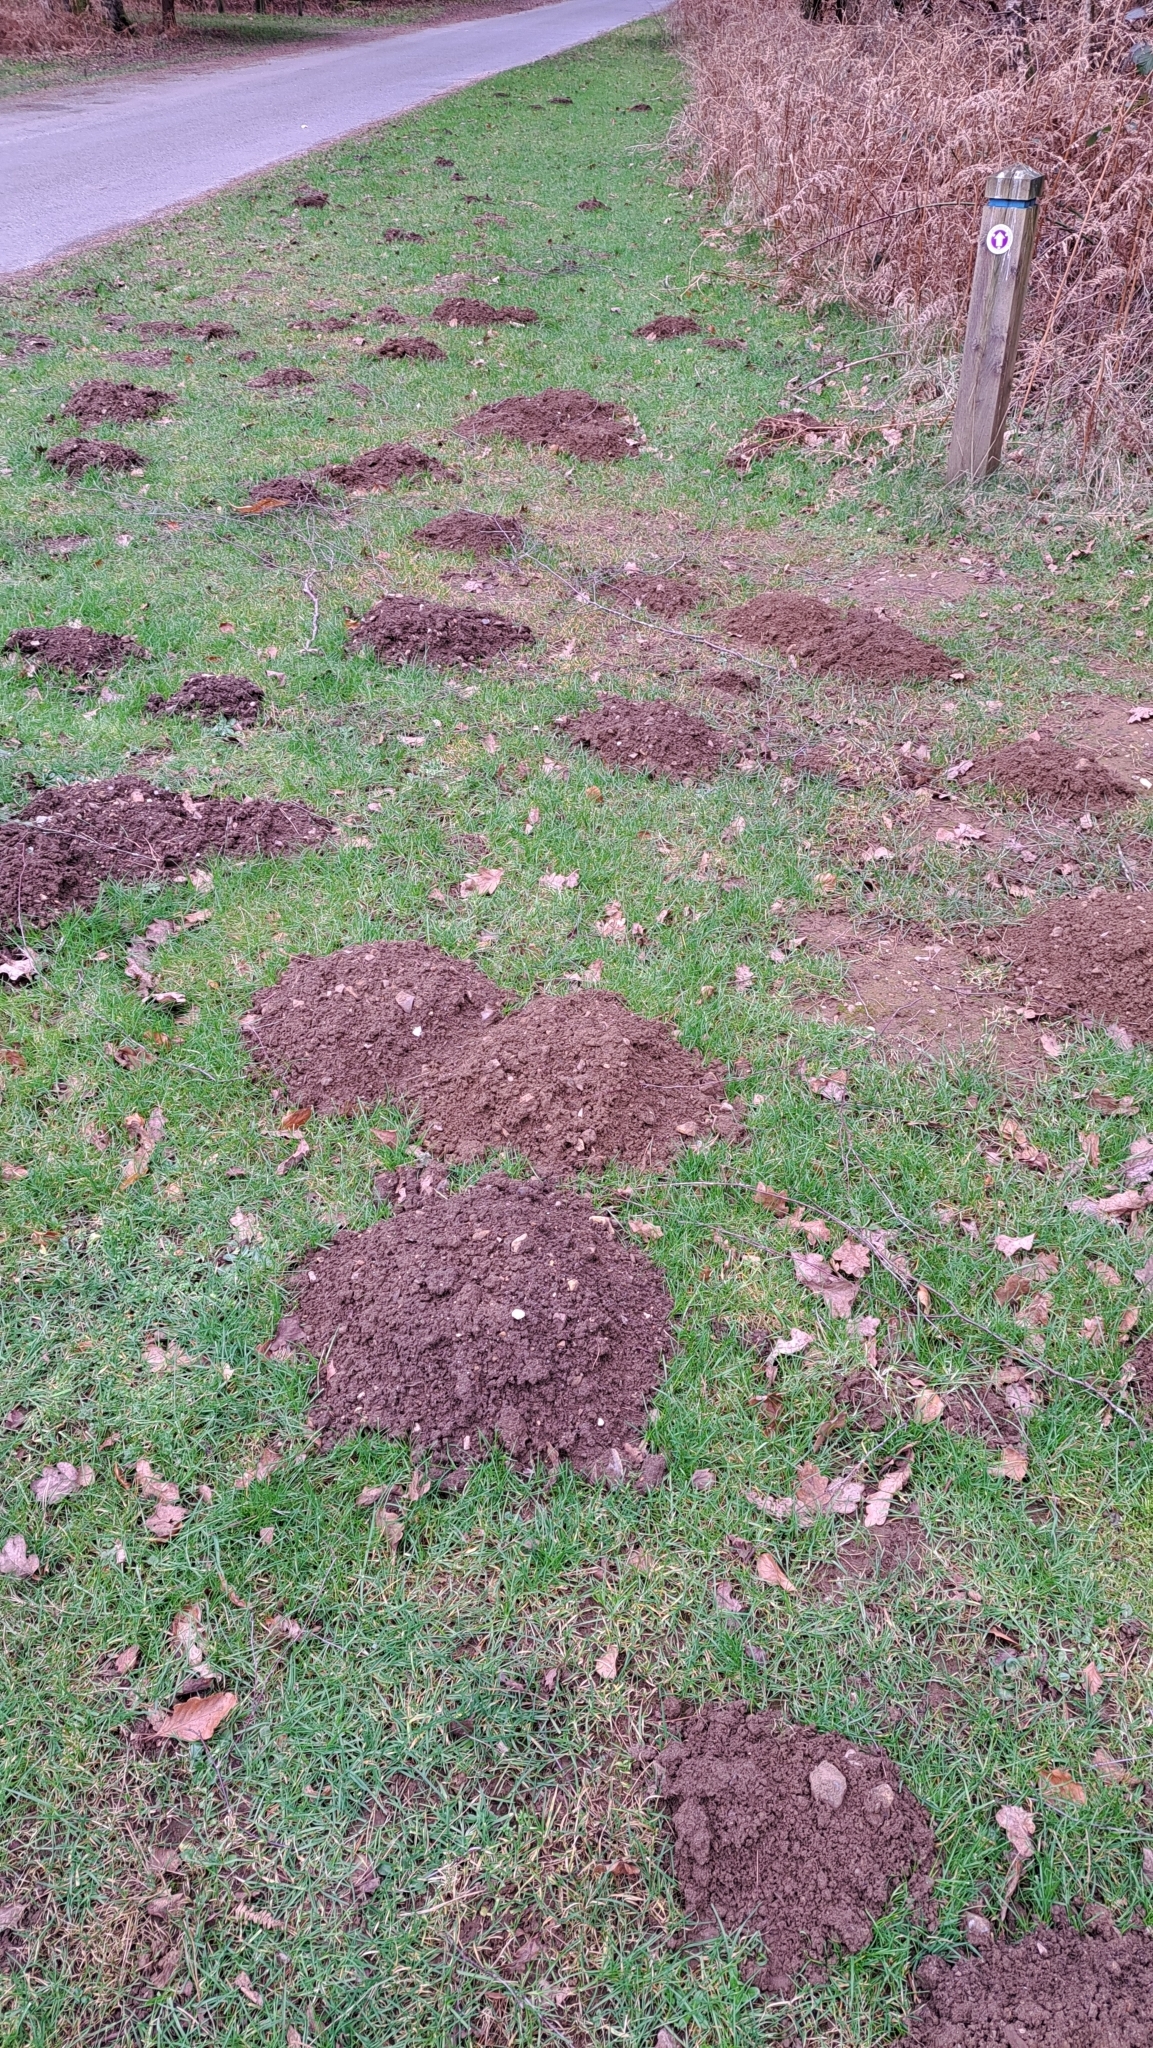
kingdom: Animalia
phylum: Chordata
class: Mammalia
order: Soricomorpha
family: Talpidae
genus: Talpa
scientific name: Talpa europaea
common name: European mole
